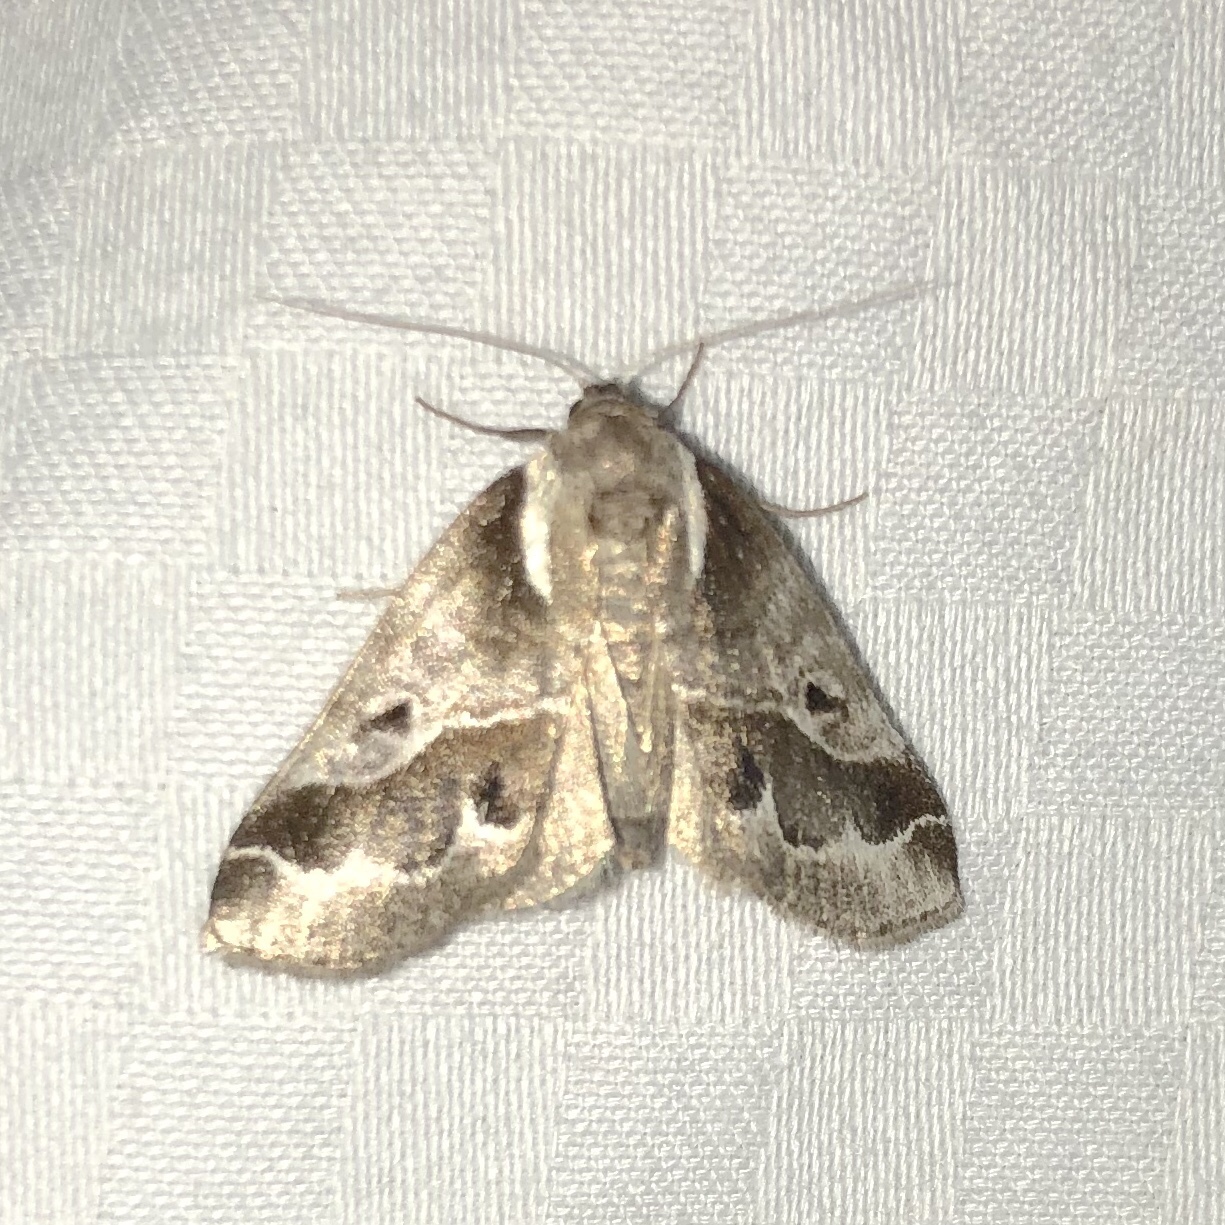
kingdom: Animalia
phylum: Arthropoda
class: Insecta
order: Lepidoptera
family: Nolidae
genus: Baileya
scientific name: Baileya doubledayi
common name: Doubleday's baileya moth
